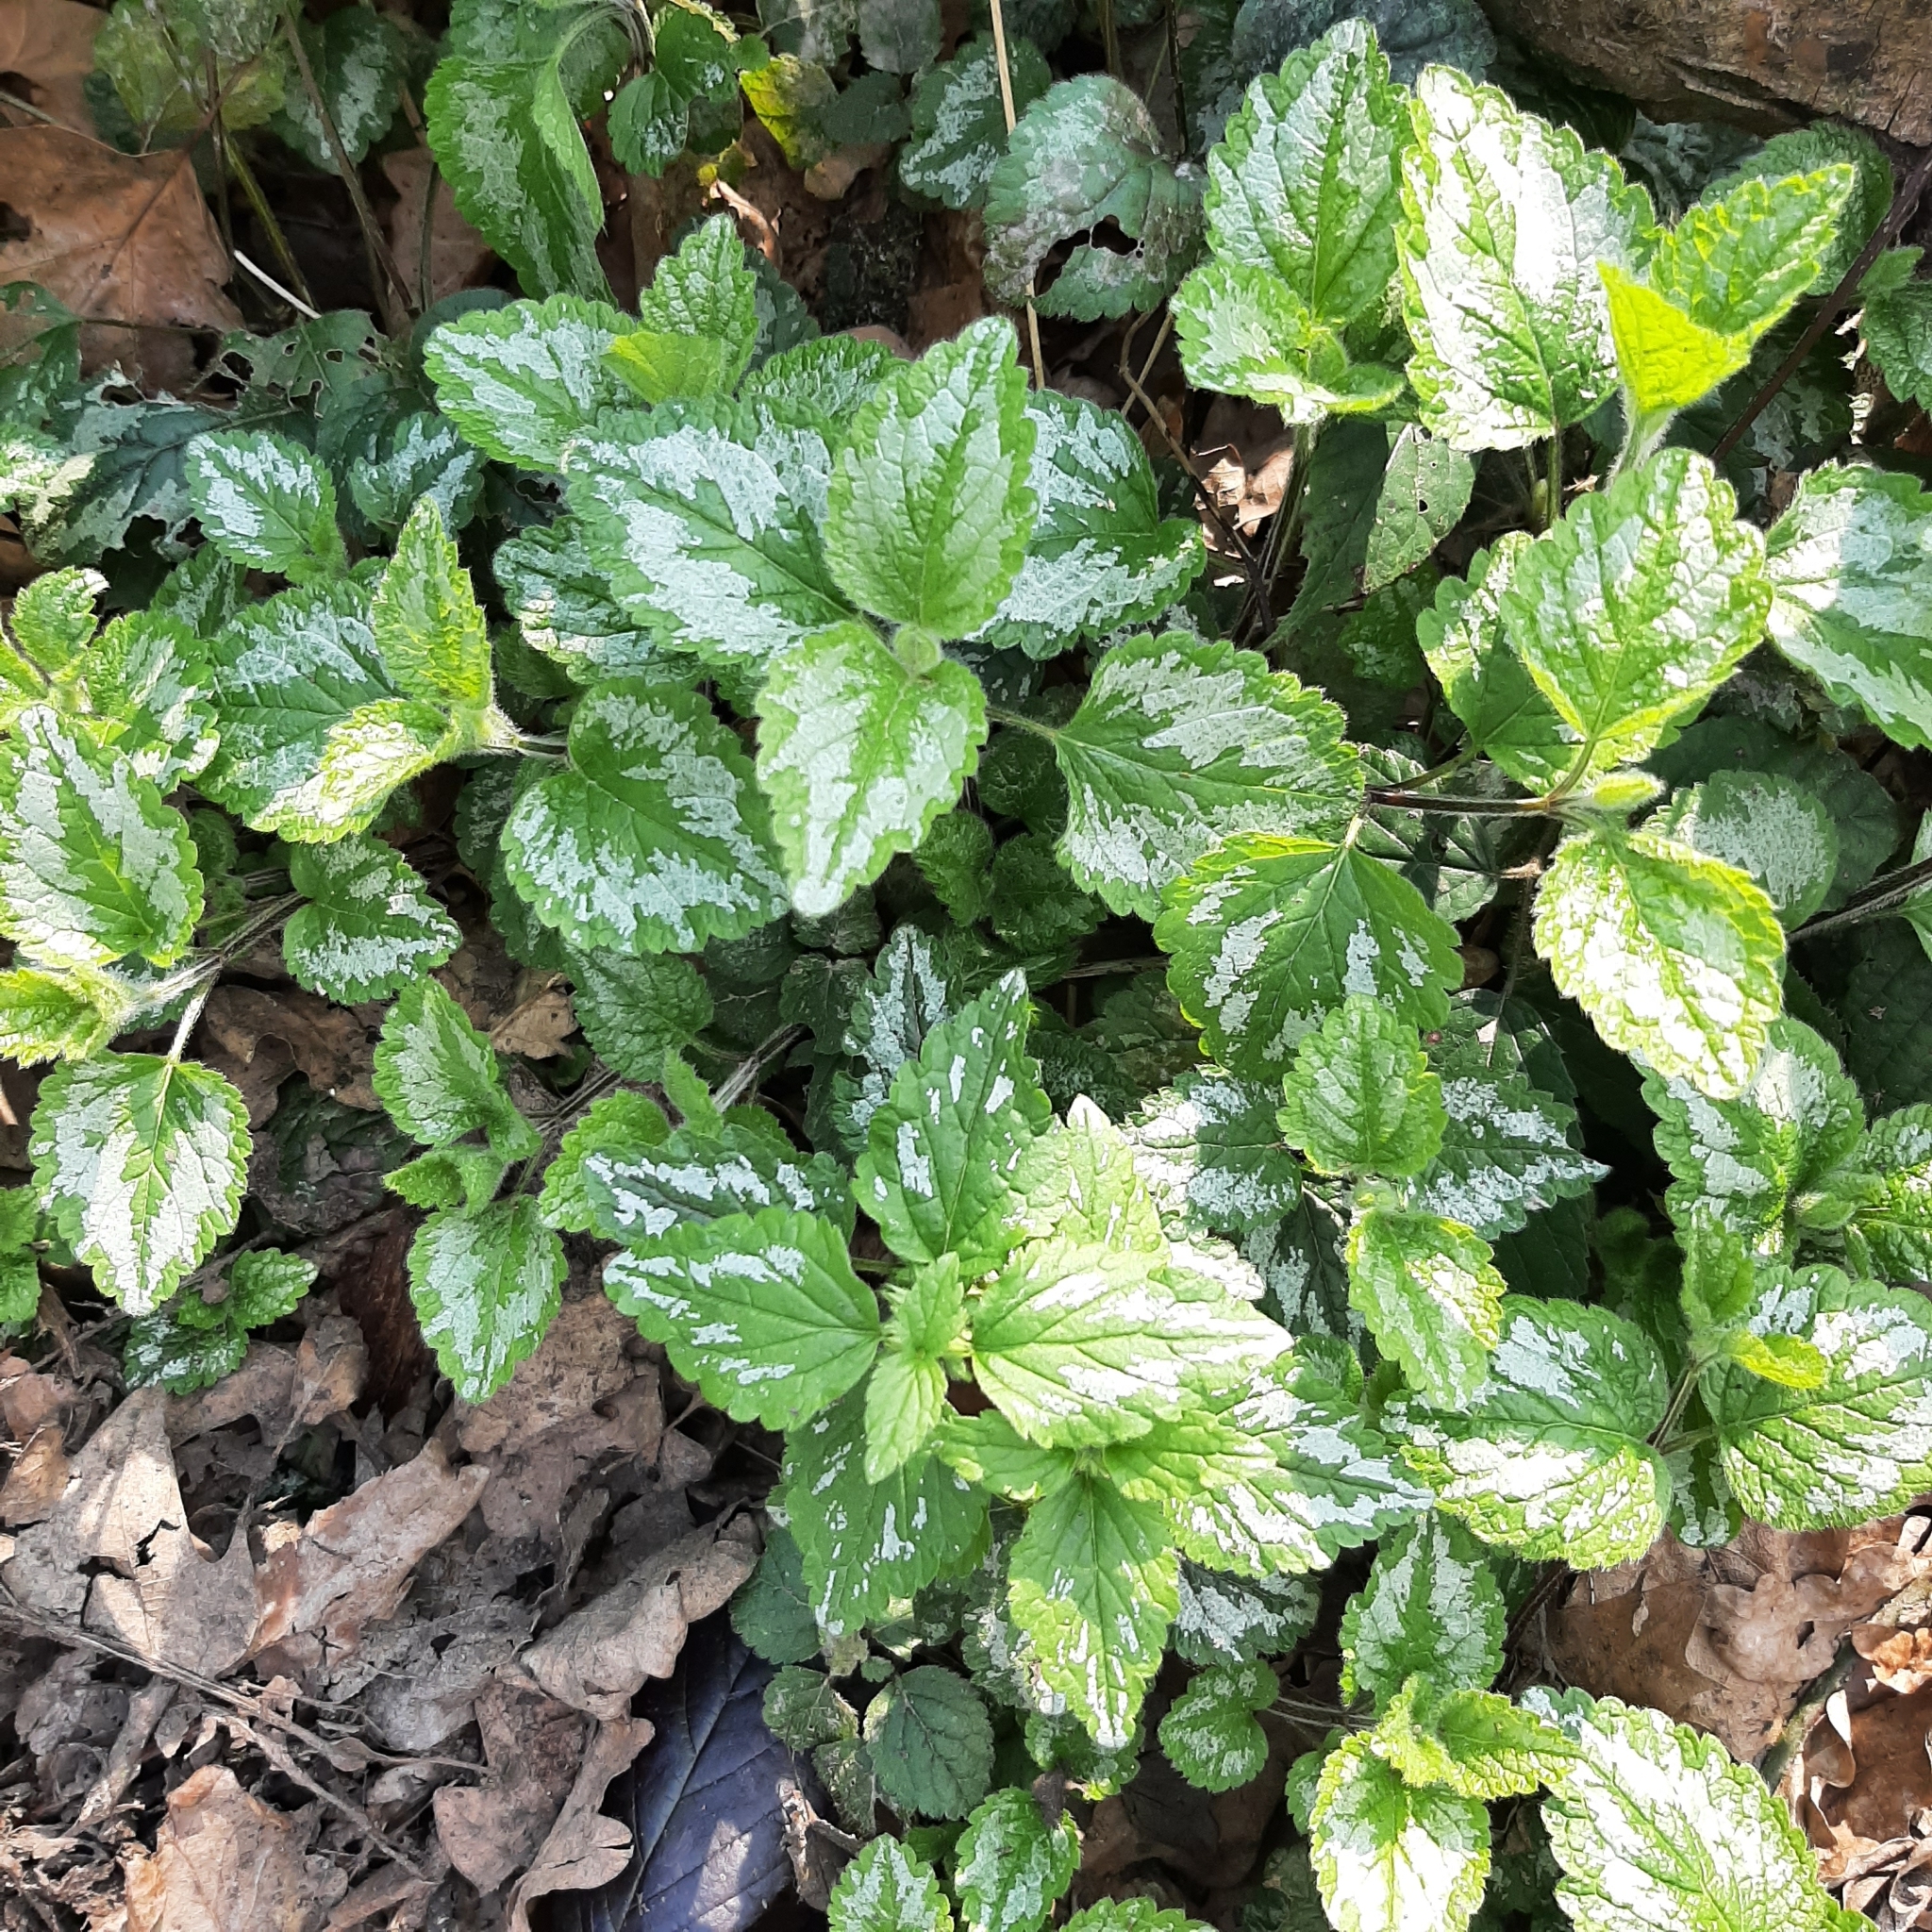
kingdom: Plantae
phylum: Tracheophyta
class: Magnoliopsida
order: Lamiales
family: Lamiaceae
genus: Lamium
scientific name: Lamium galeobdolon
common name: Yellow archangel
